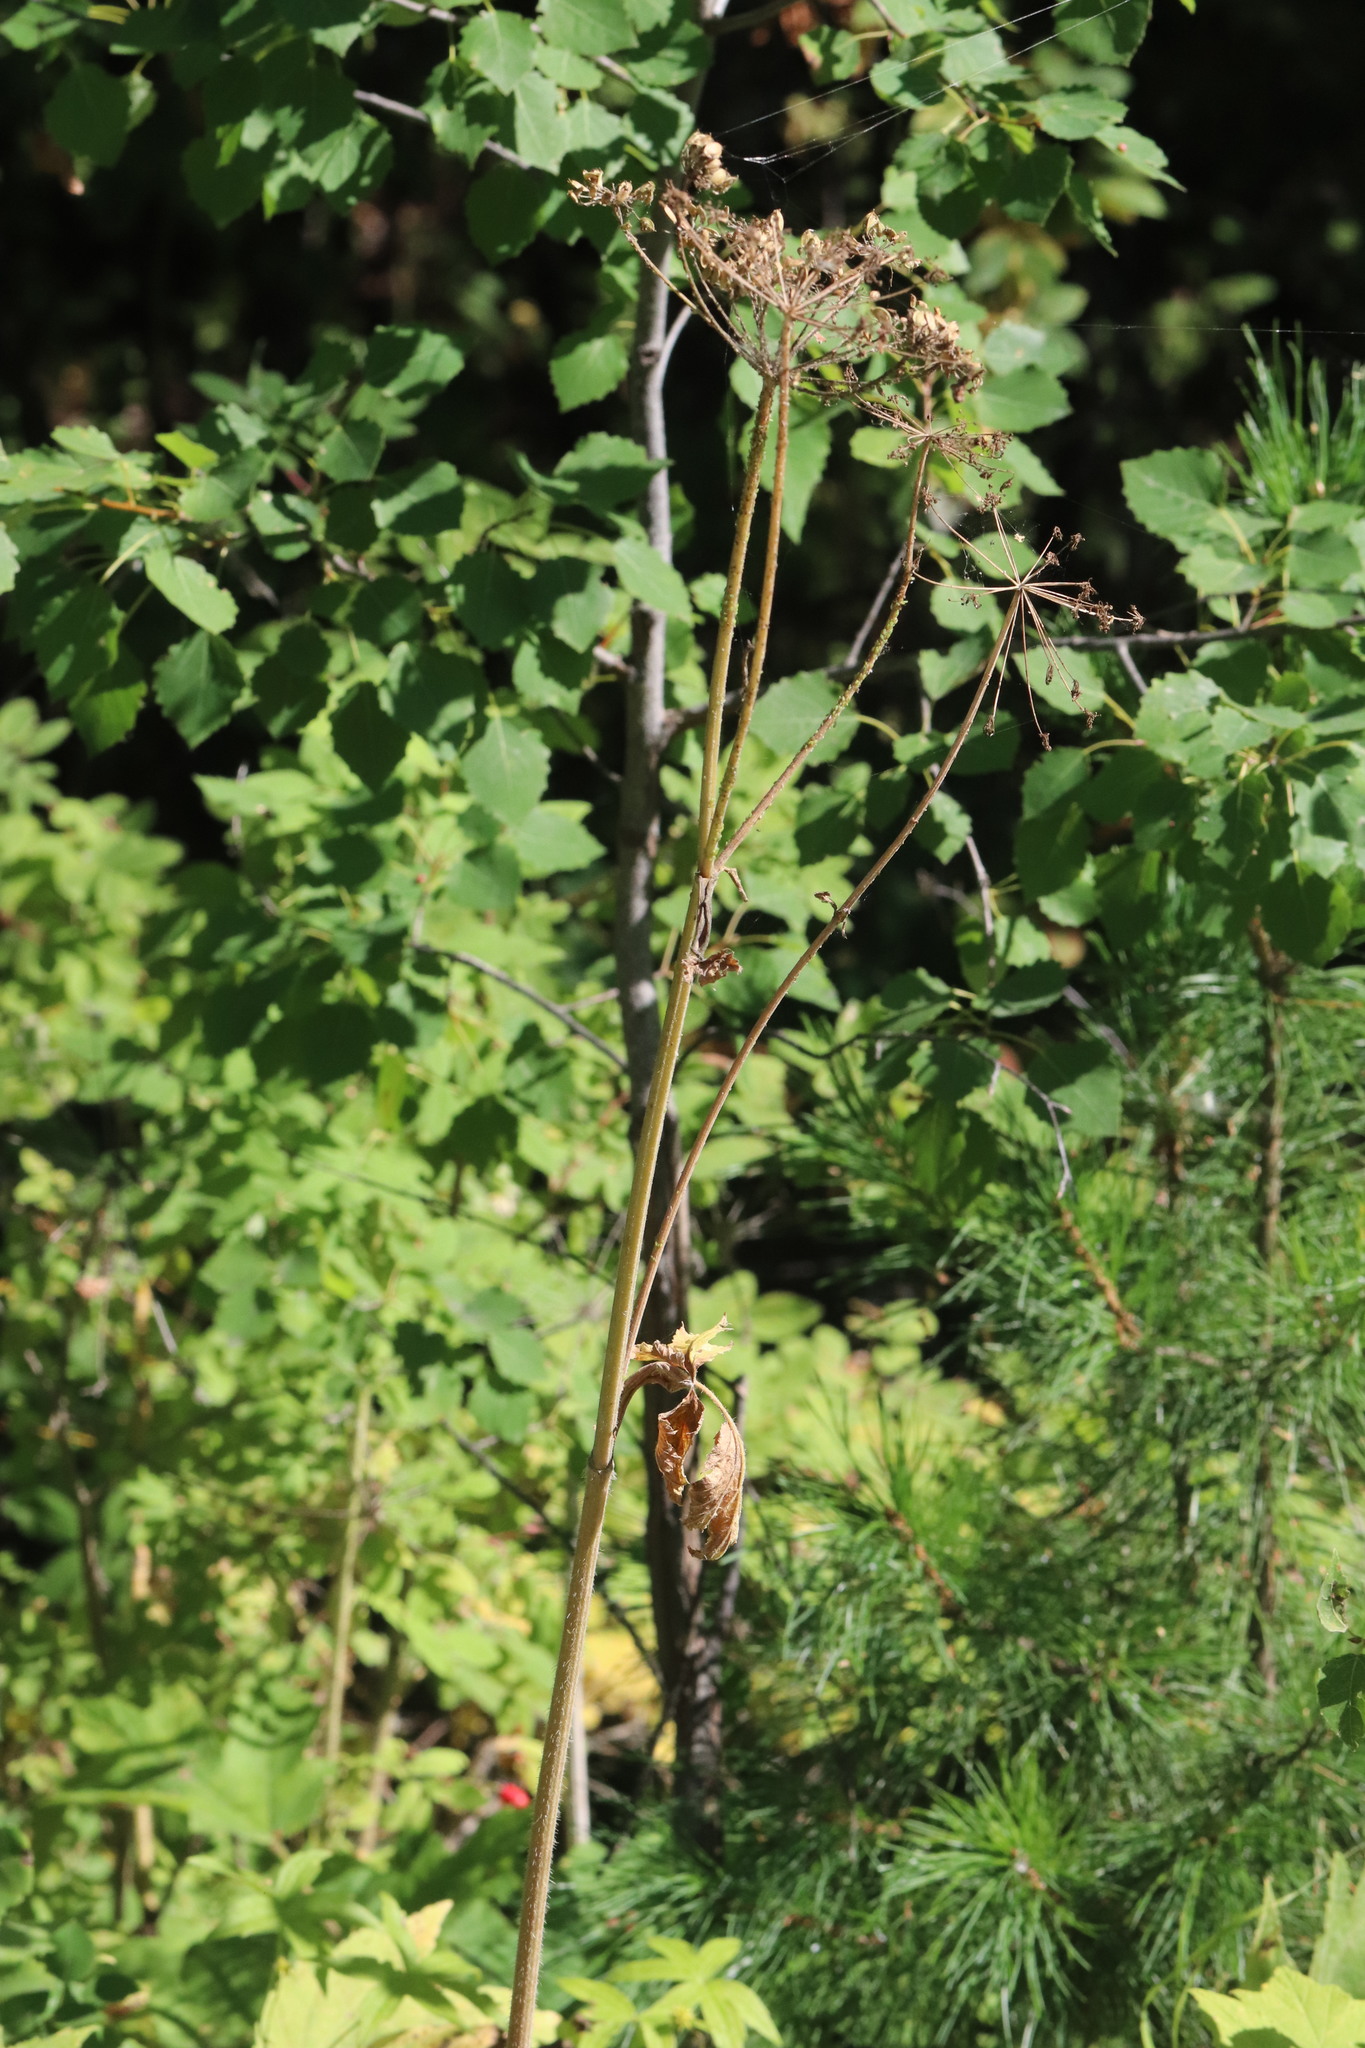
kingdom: Plantae
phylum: Tracheophyta
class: Magnoliopsida
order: Apiales
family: Apiaceae
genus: Heracleum
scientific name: Heracleum sphondylium
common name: Hogweed
